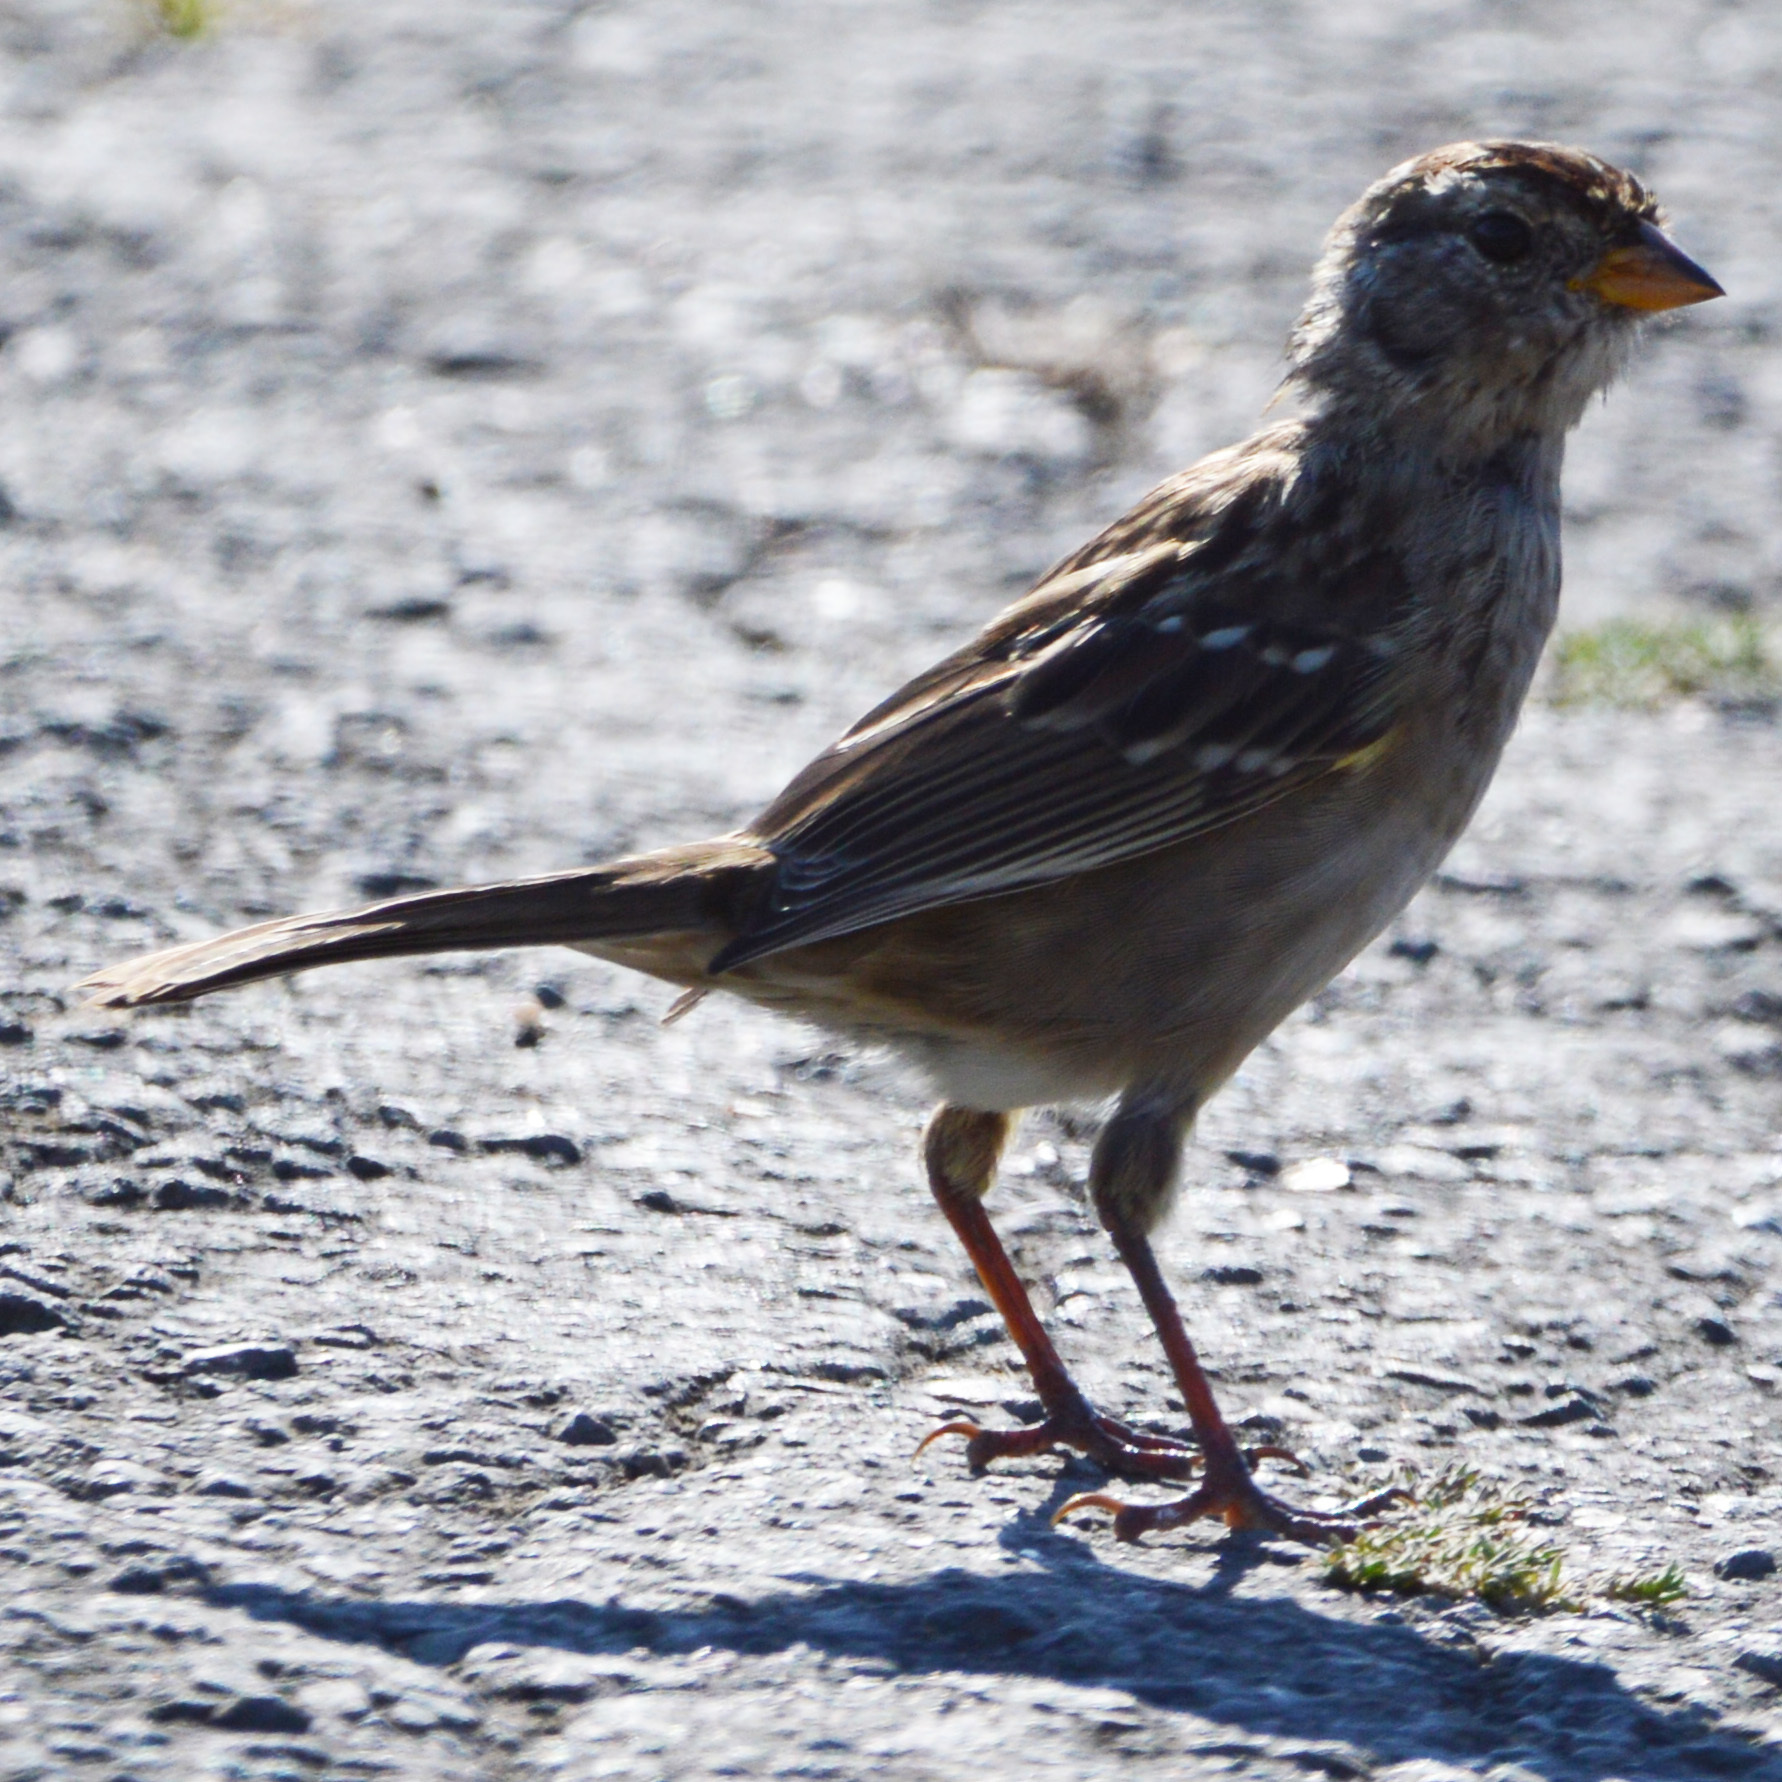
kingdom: Animalia
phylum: Chordata
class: Aves
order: Passeriformes
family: Passerellidae
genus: Zonotrichia
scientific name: Zonotrichia leucophrys
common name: White-crowned sparrow
